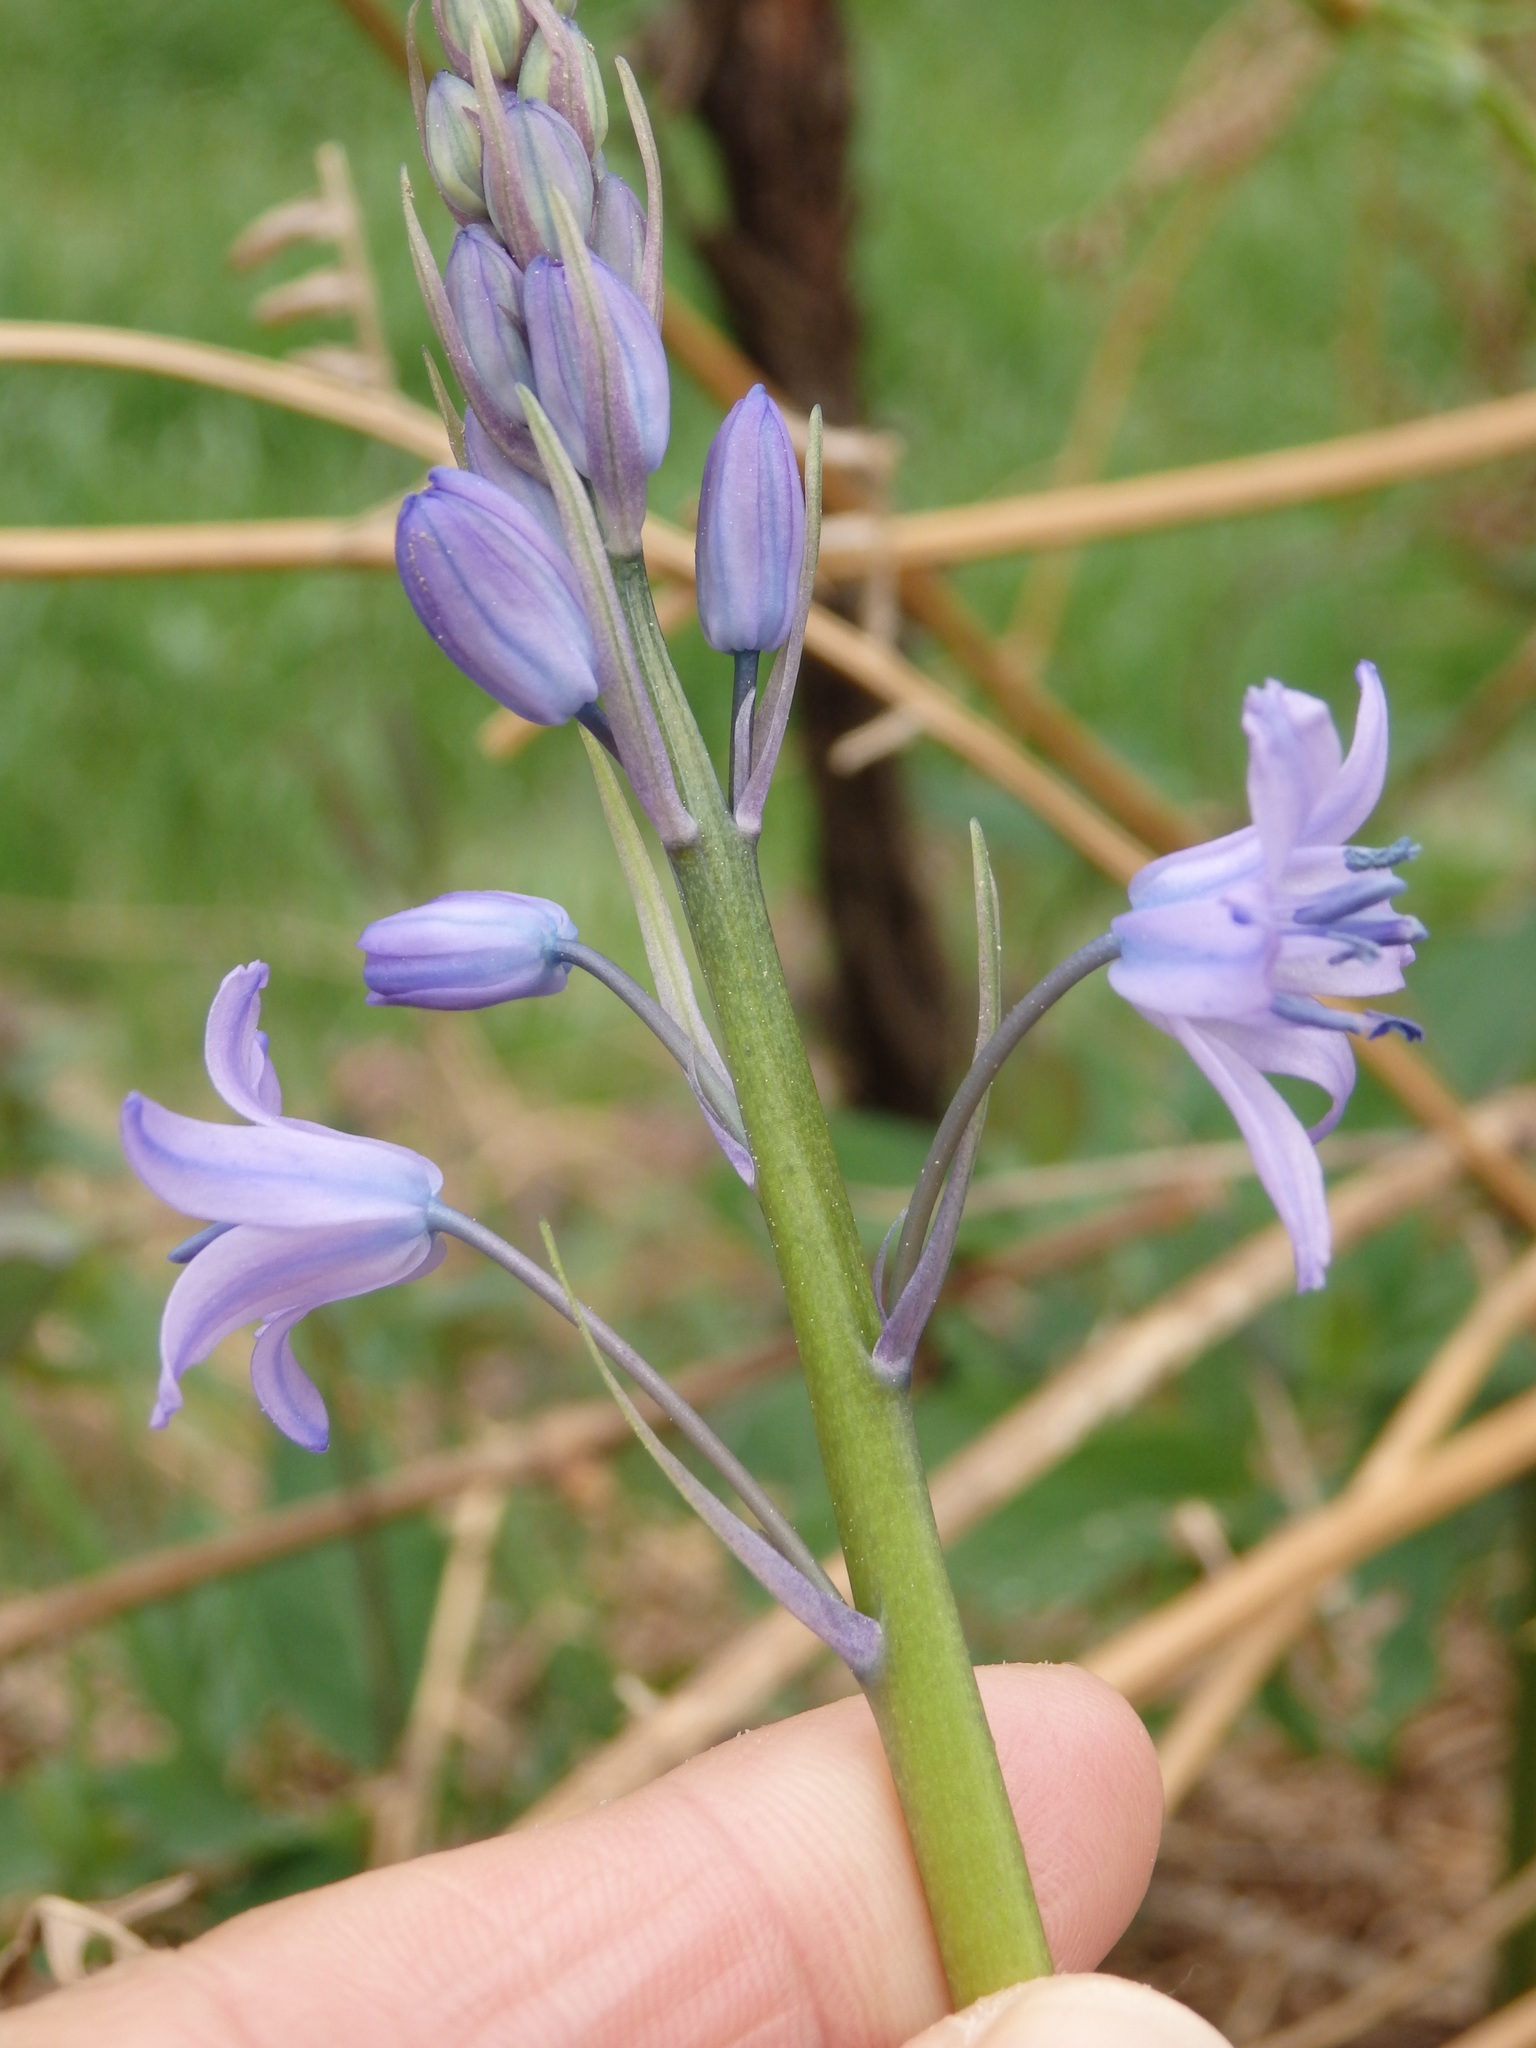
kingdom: Plantae
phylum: Tracheophyta
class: Liliopsida
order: Asparagales
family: Asparagaceae
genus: Hyacinthoides
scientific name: Hyacinthoides paivae
